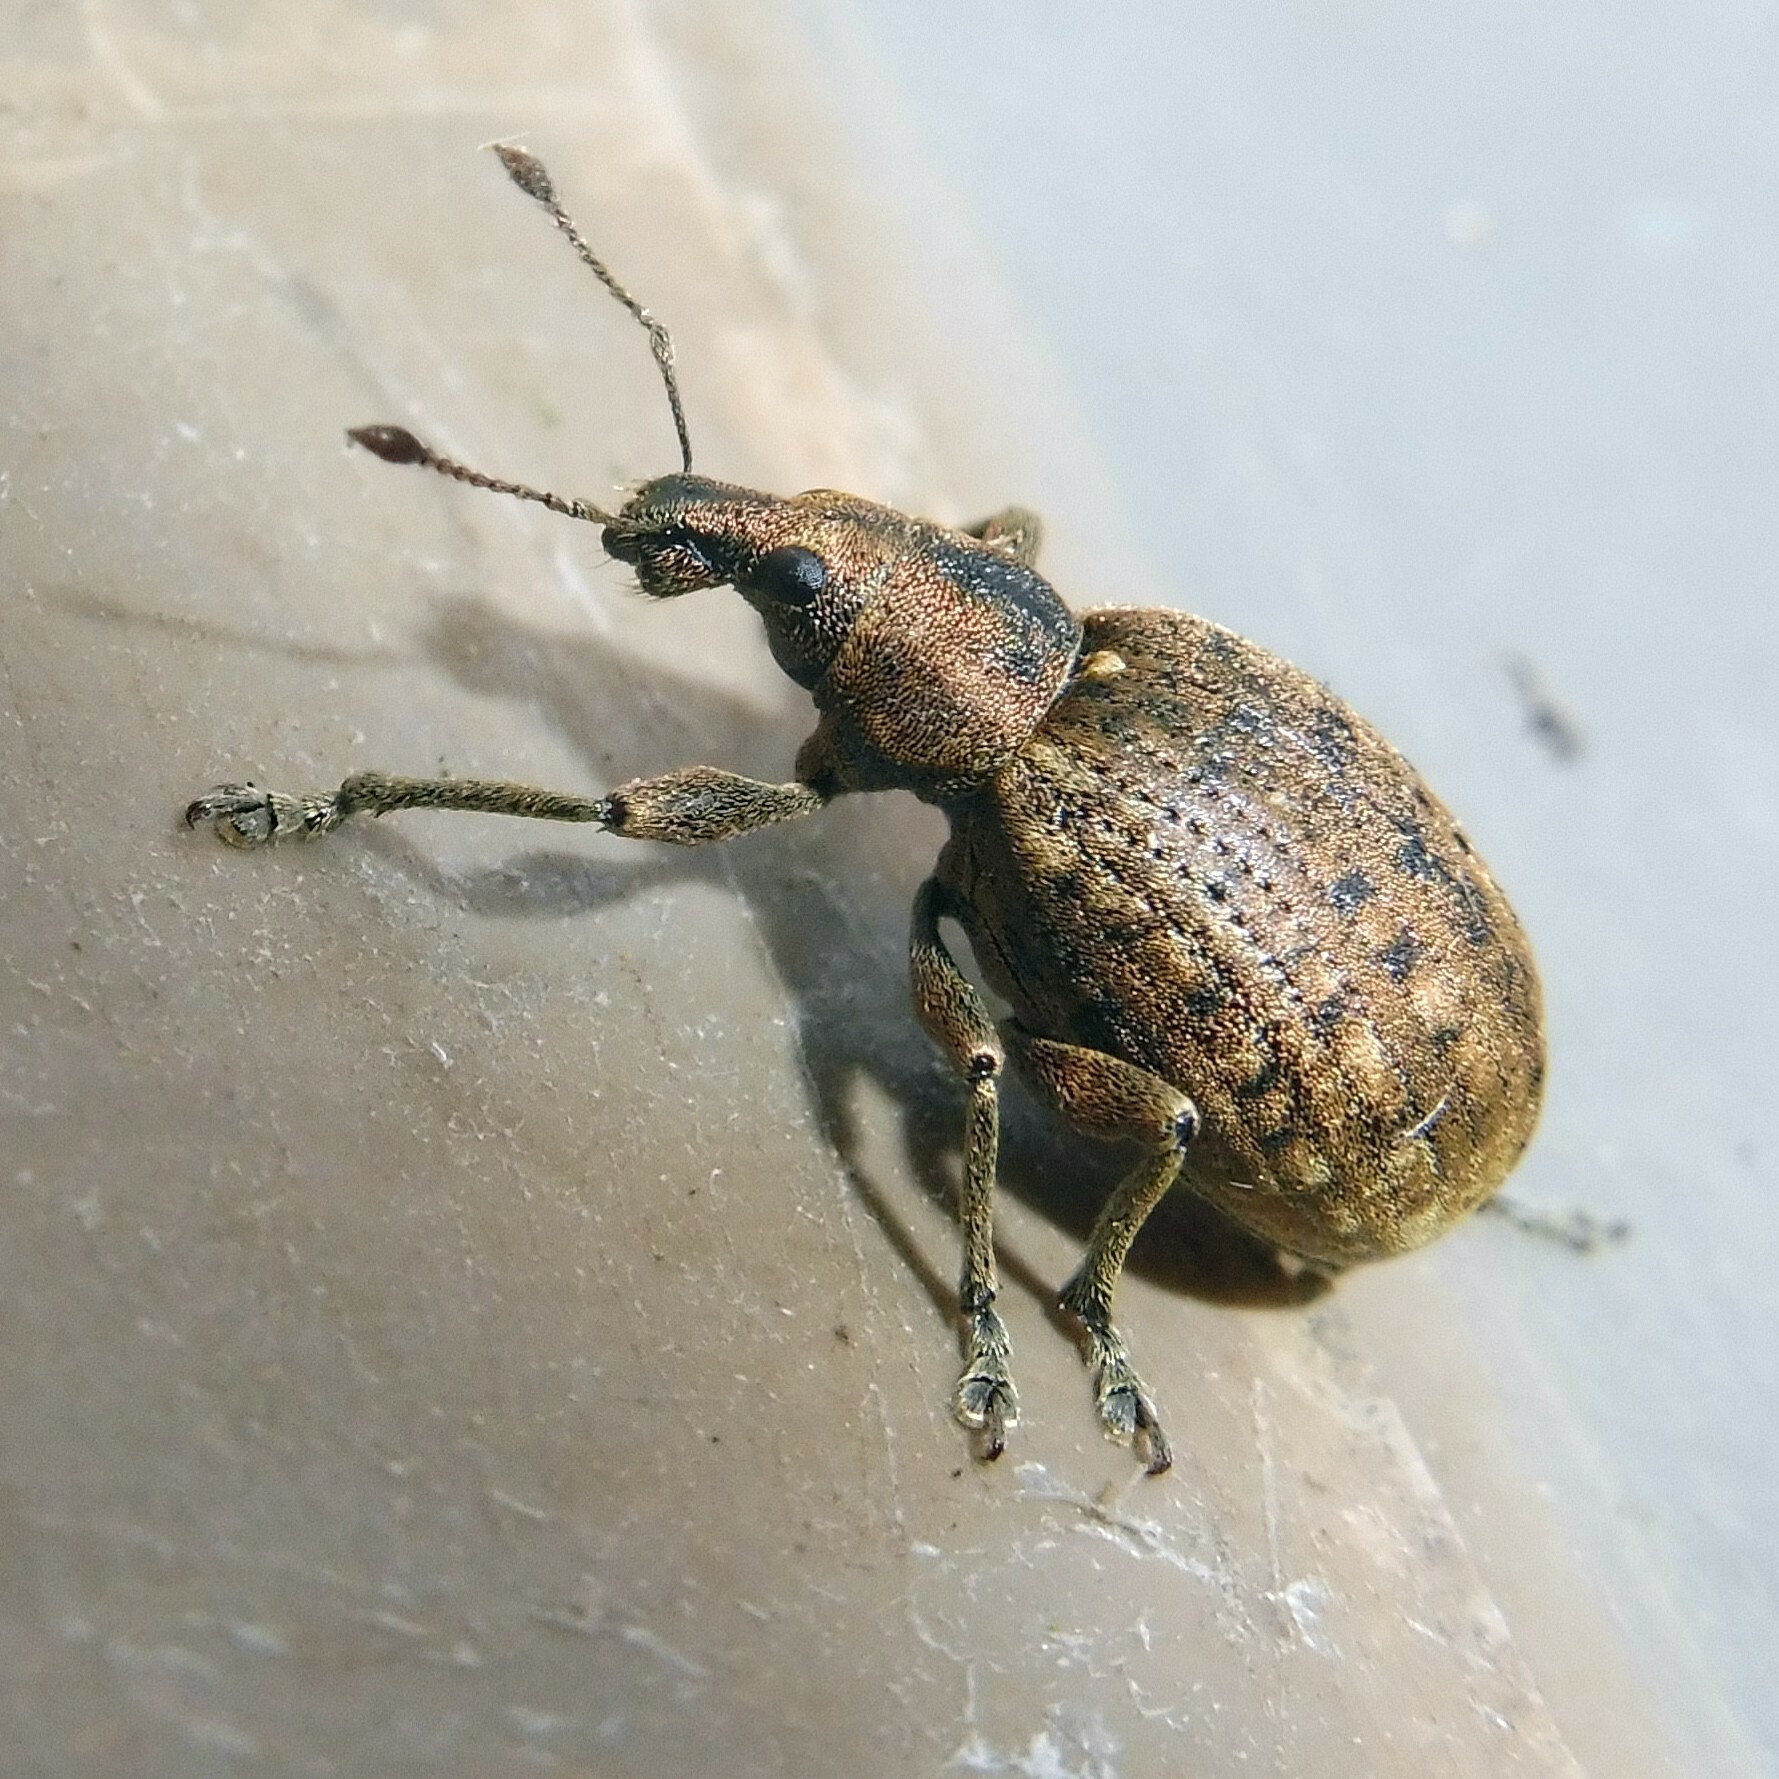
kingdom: Animalia
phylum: Arthropoda
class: Insecta
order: Coleoptera
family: Curculionidae
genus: Liophloeus
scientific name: Liophloeus tessulatus
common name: Weevil
